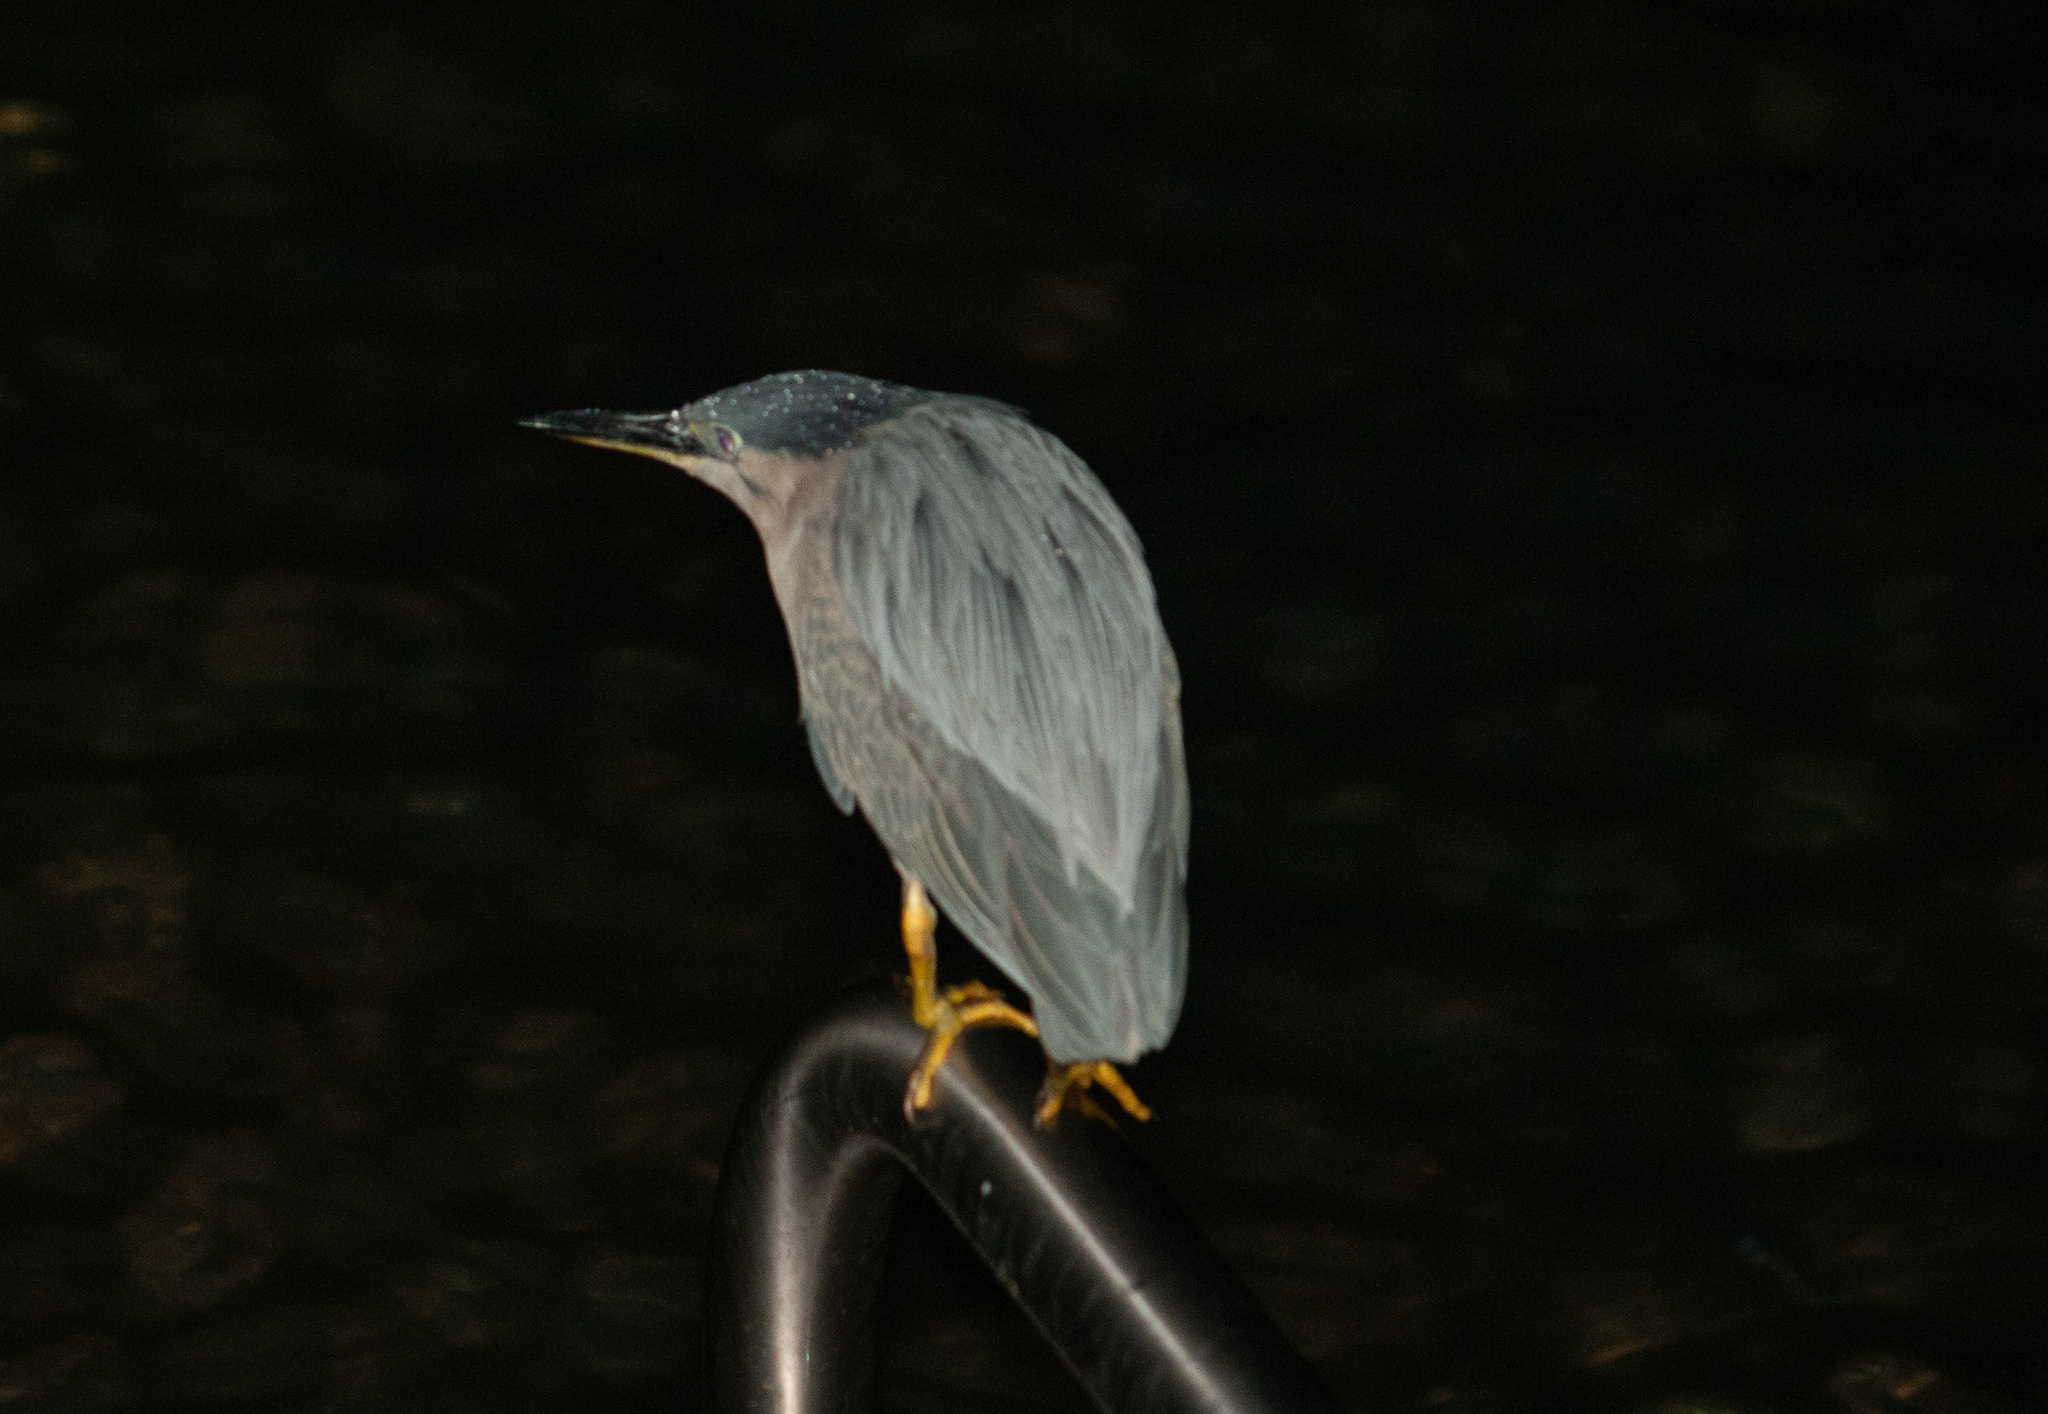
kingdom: Animalia
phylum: Chordata
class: Aves
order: Pelecaniformes
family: Ardeidae
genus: Butorides
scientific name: Butorides striata
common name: Striated heron
